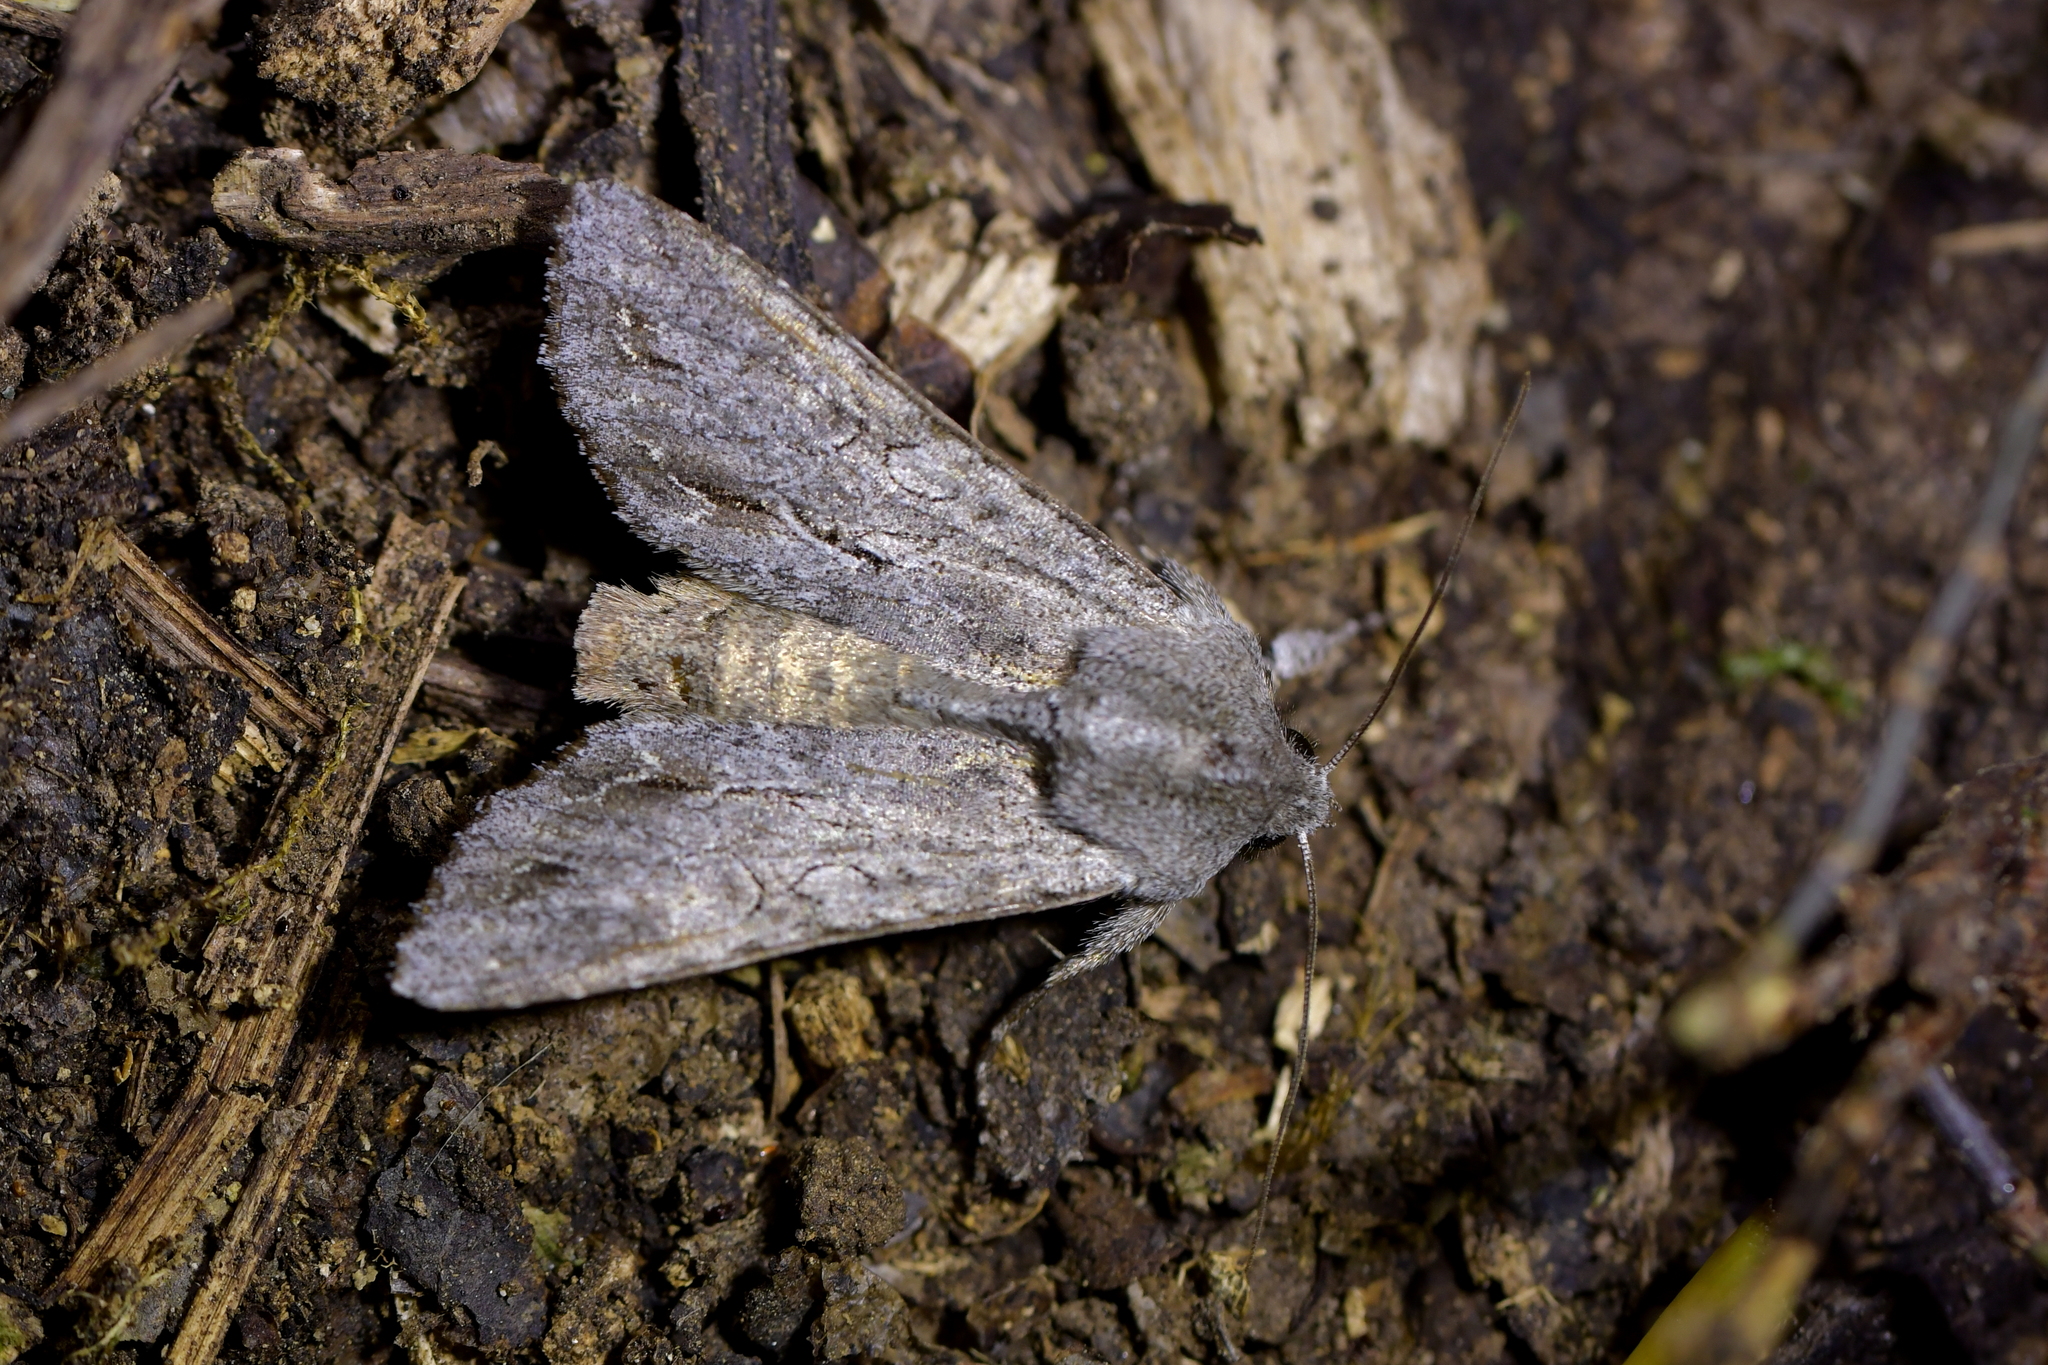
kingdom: Animalia
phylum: Arthropoda
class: Insecta
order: Lepidoptera
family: Noctuidae
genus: Ichneutica
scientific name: Ichneutica
